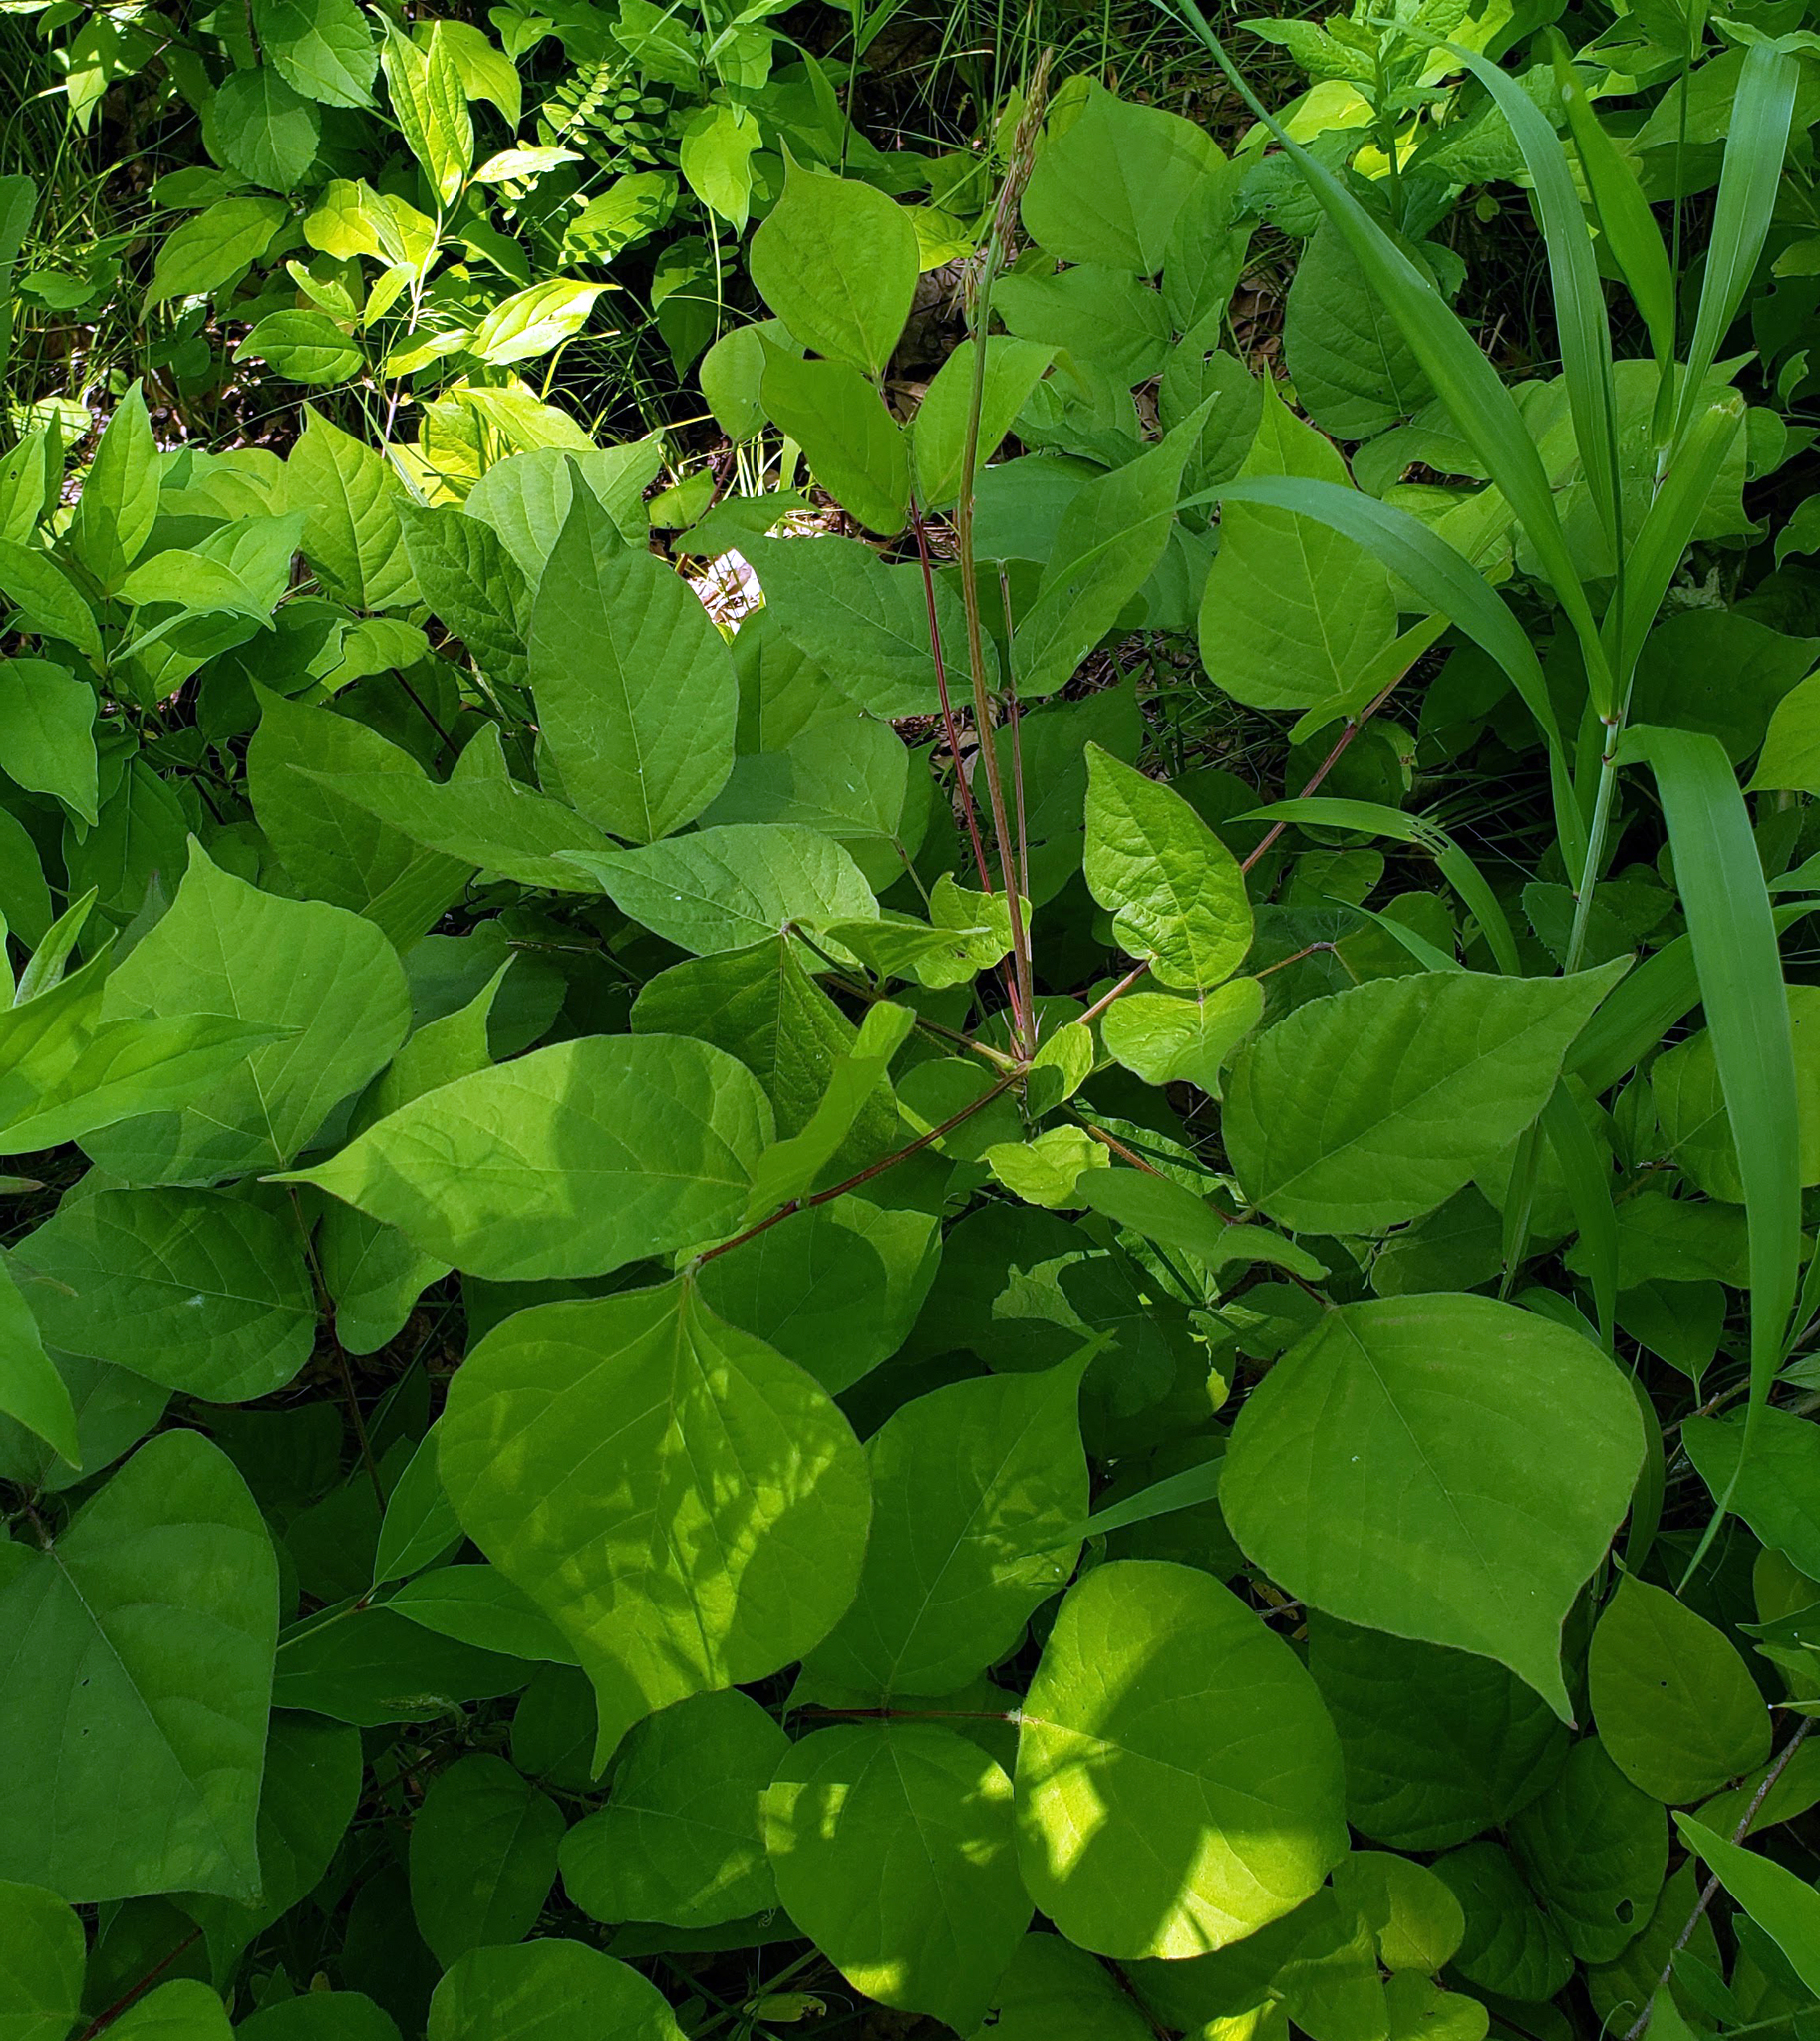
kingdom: Plantae
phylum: Tracheophyta
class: Magnoliopsida
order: Fabales
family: Fabaceae
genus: Hylodesmum
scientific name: Hylodesmum glutinosum
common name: Clustered-leaved tick-trefoil
